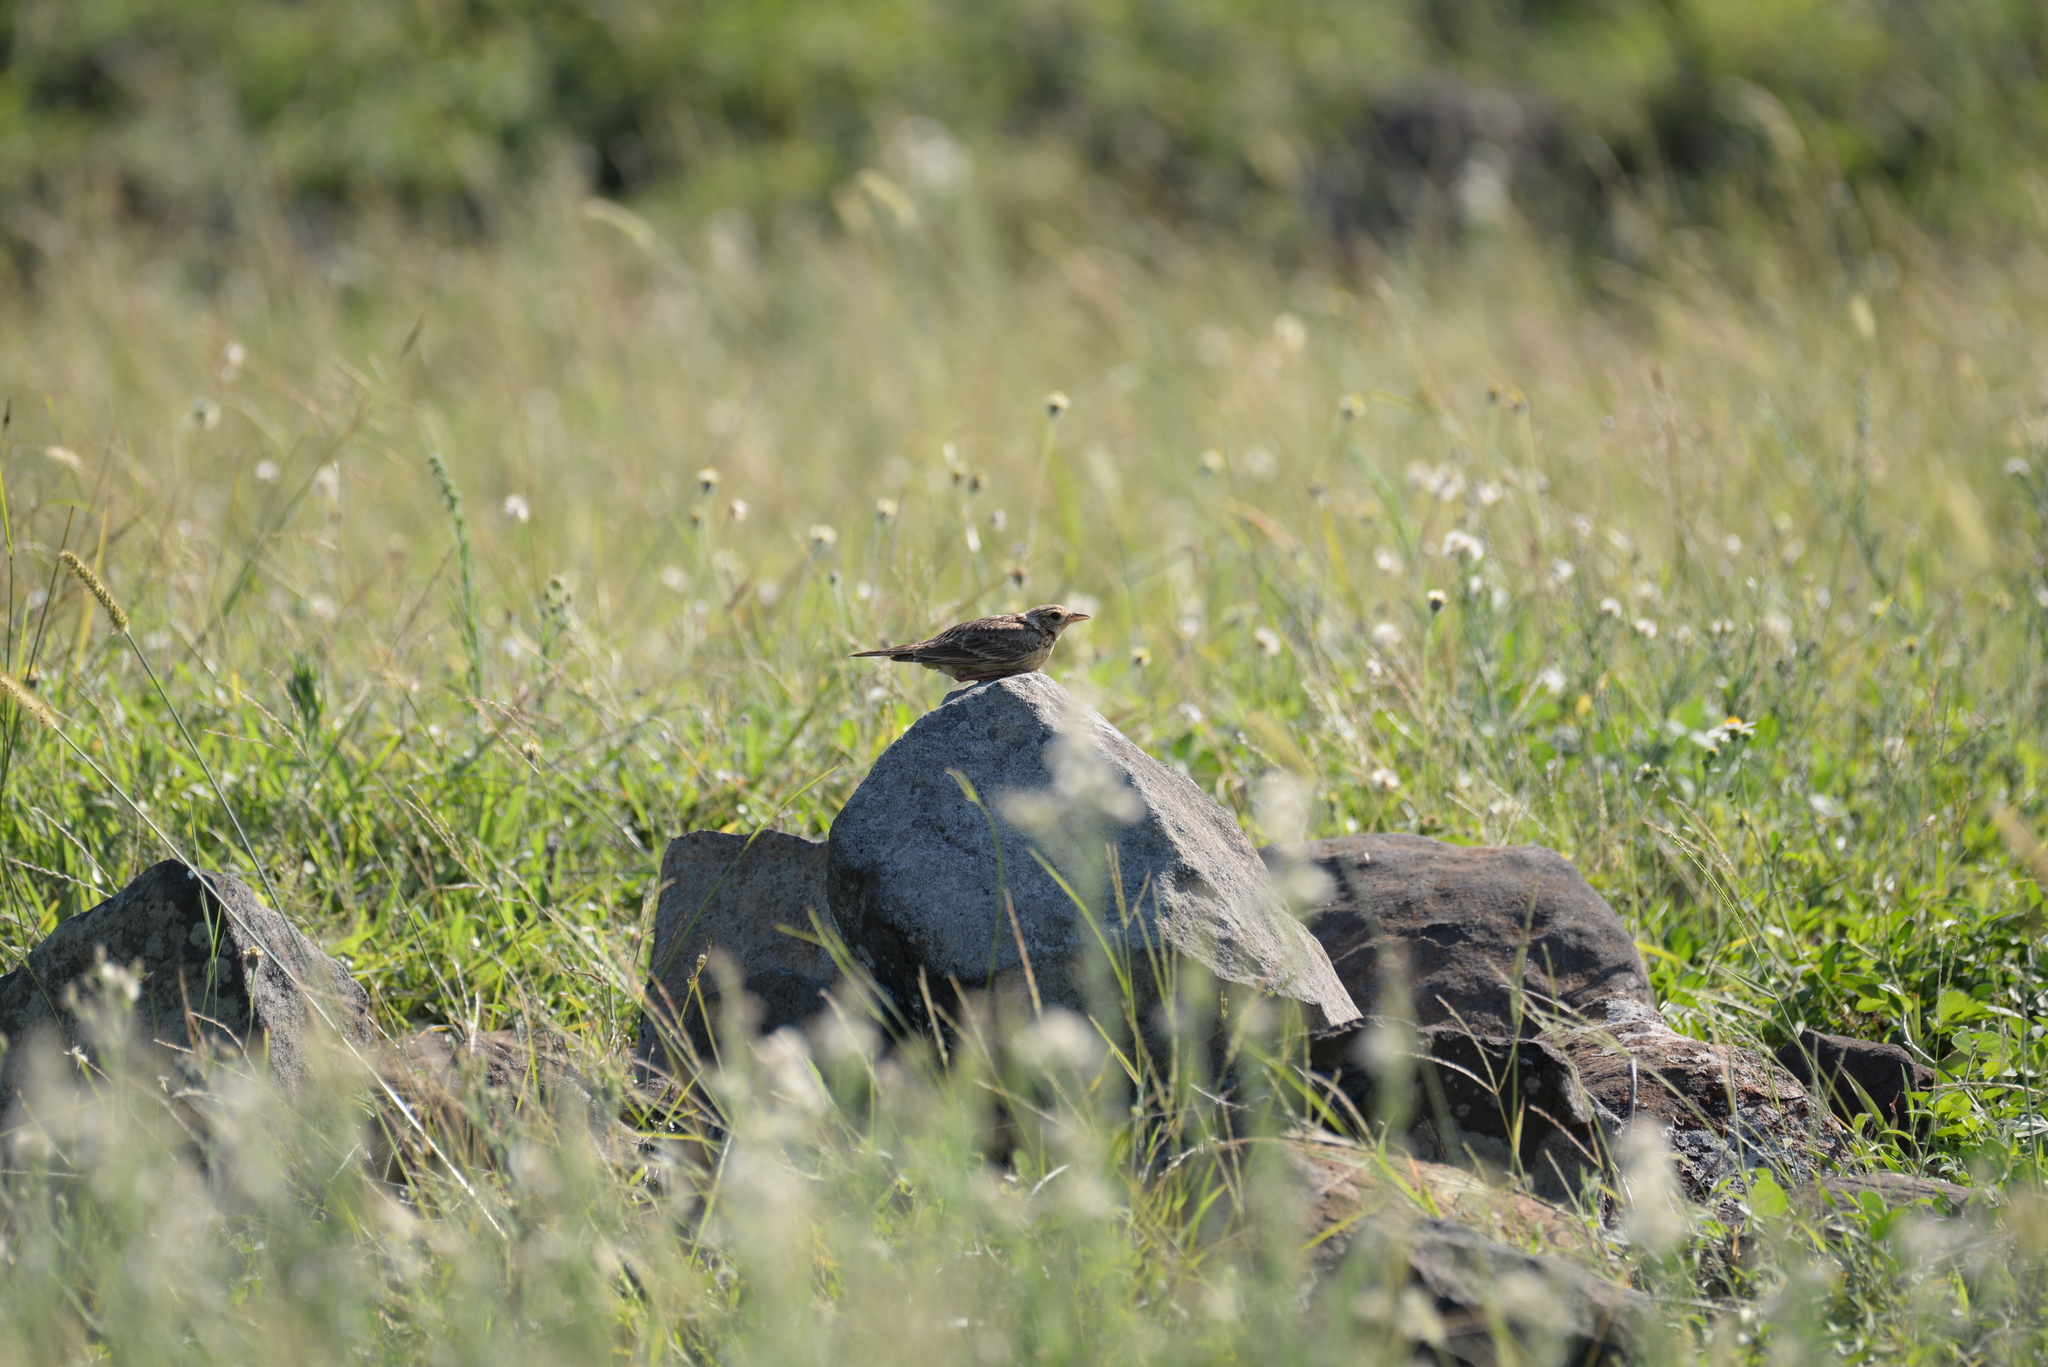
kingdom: Animalia
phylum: Chordata
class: Aves
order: Passeriformes
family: Alaudidae
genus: Alauda
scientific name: Alauda gulgula
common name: Oriental skylark
